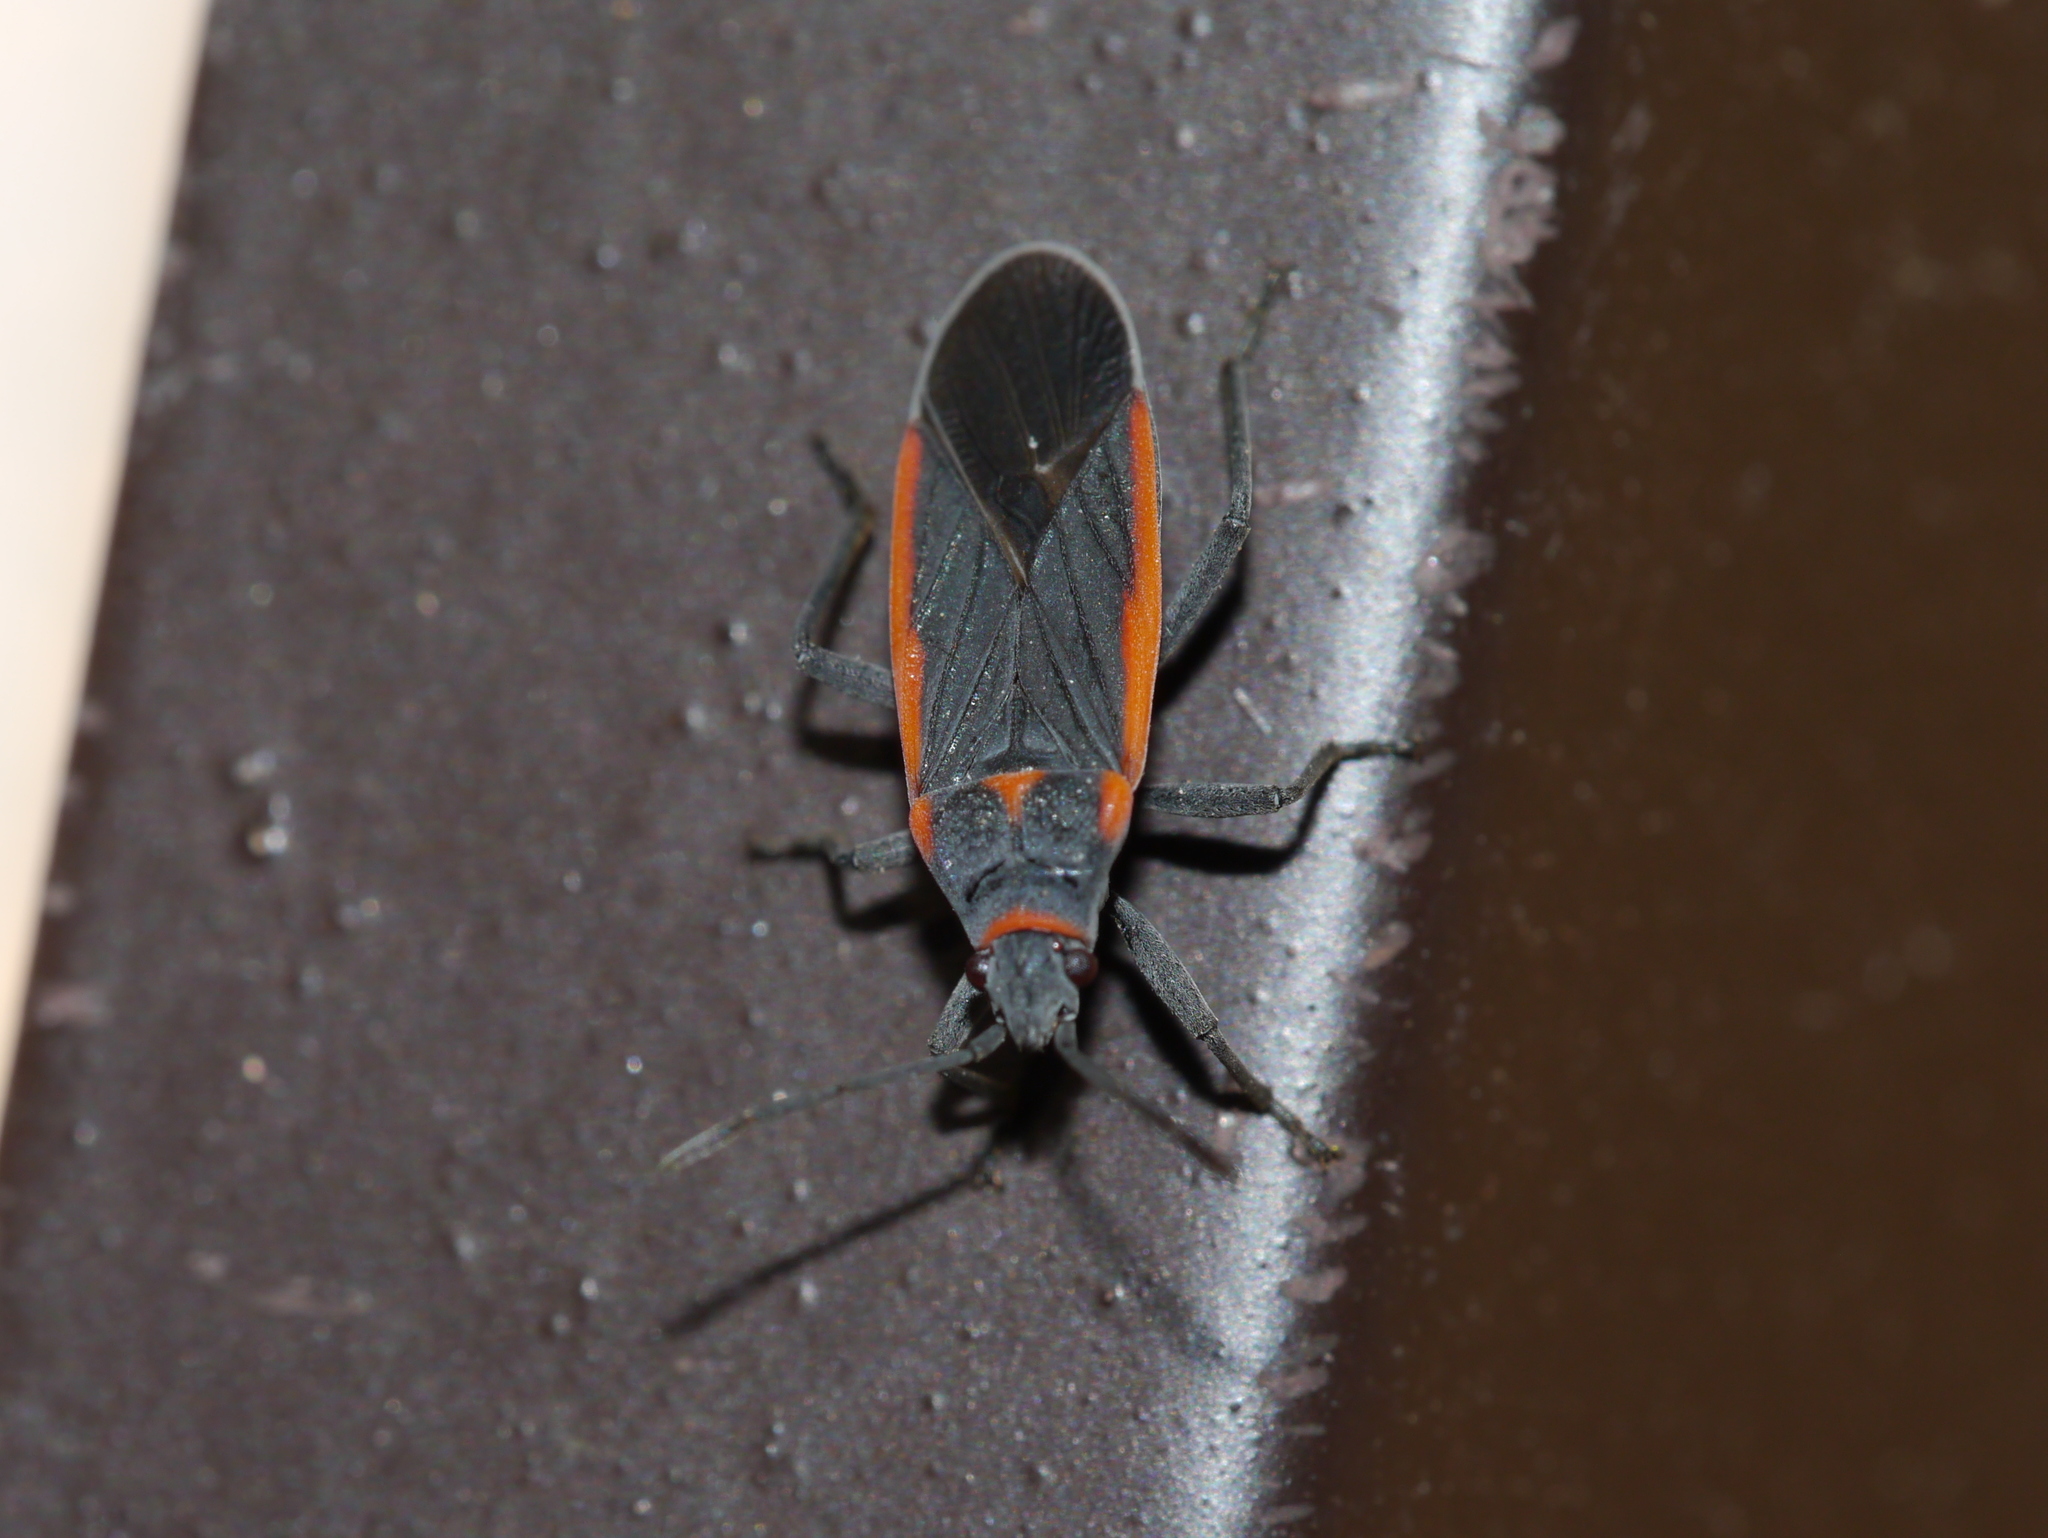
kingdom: Animalia
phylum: Arthropoda
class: Insecta
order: Hemiptera
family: Lygaeidae
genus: Melacoryphus
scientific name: Melacoryphus lateralis
